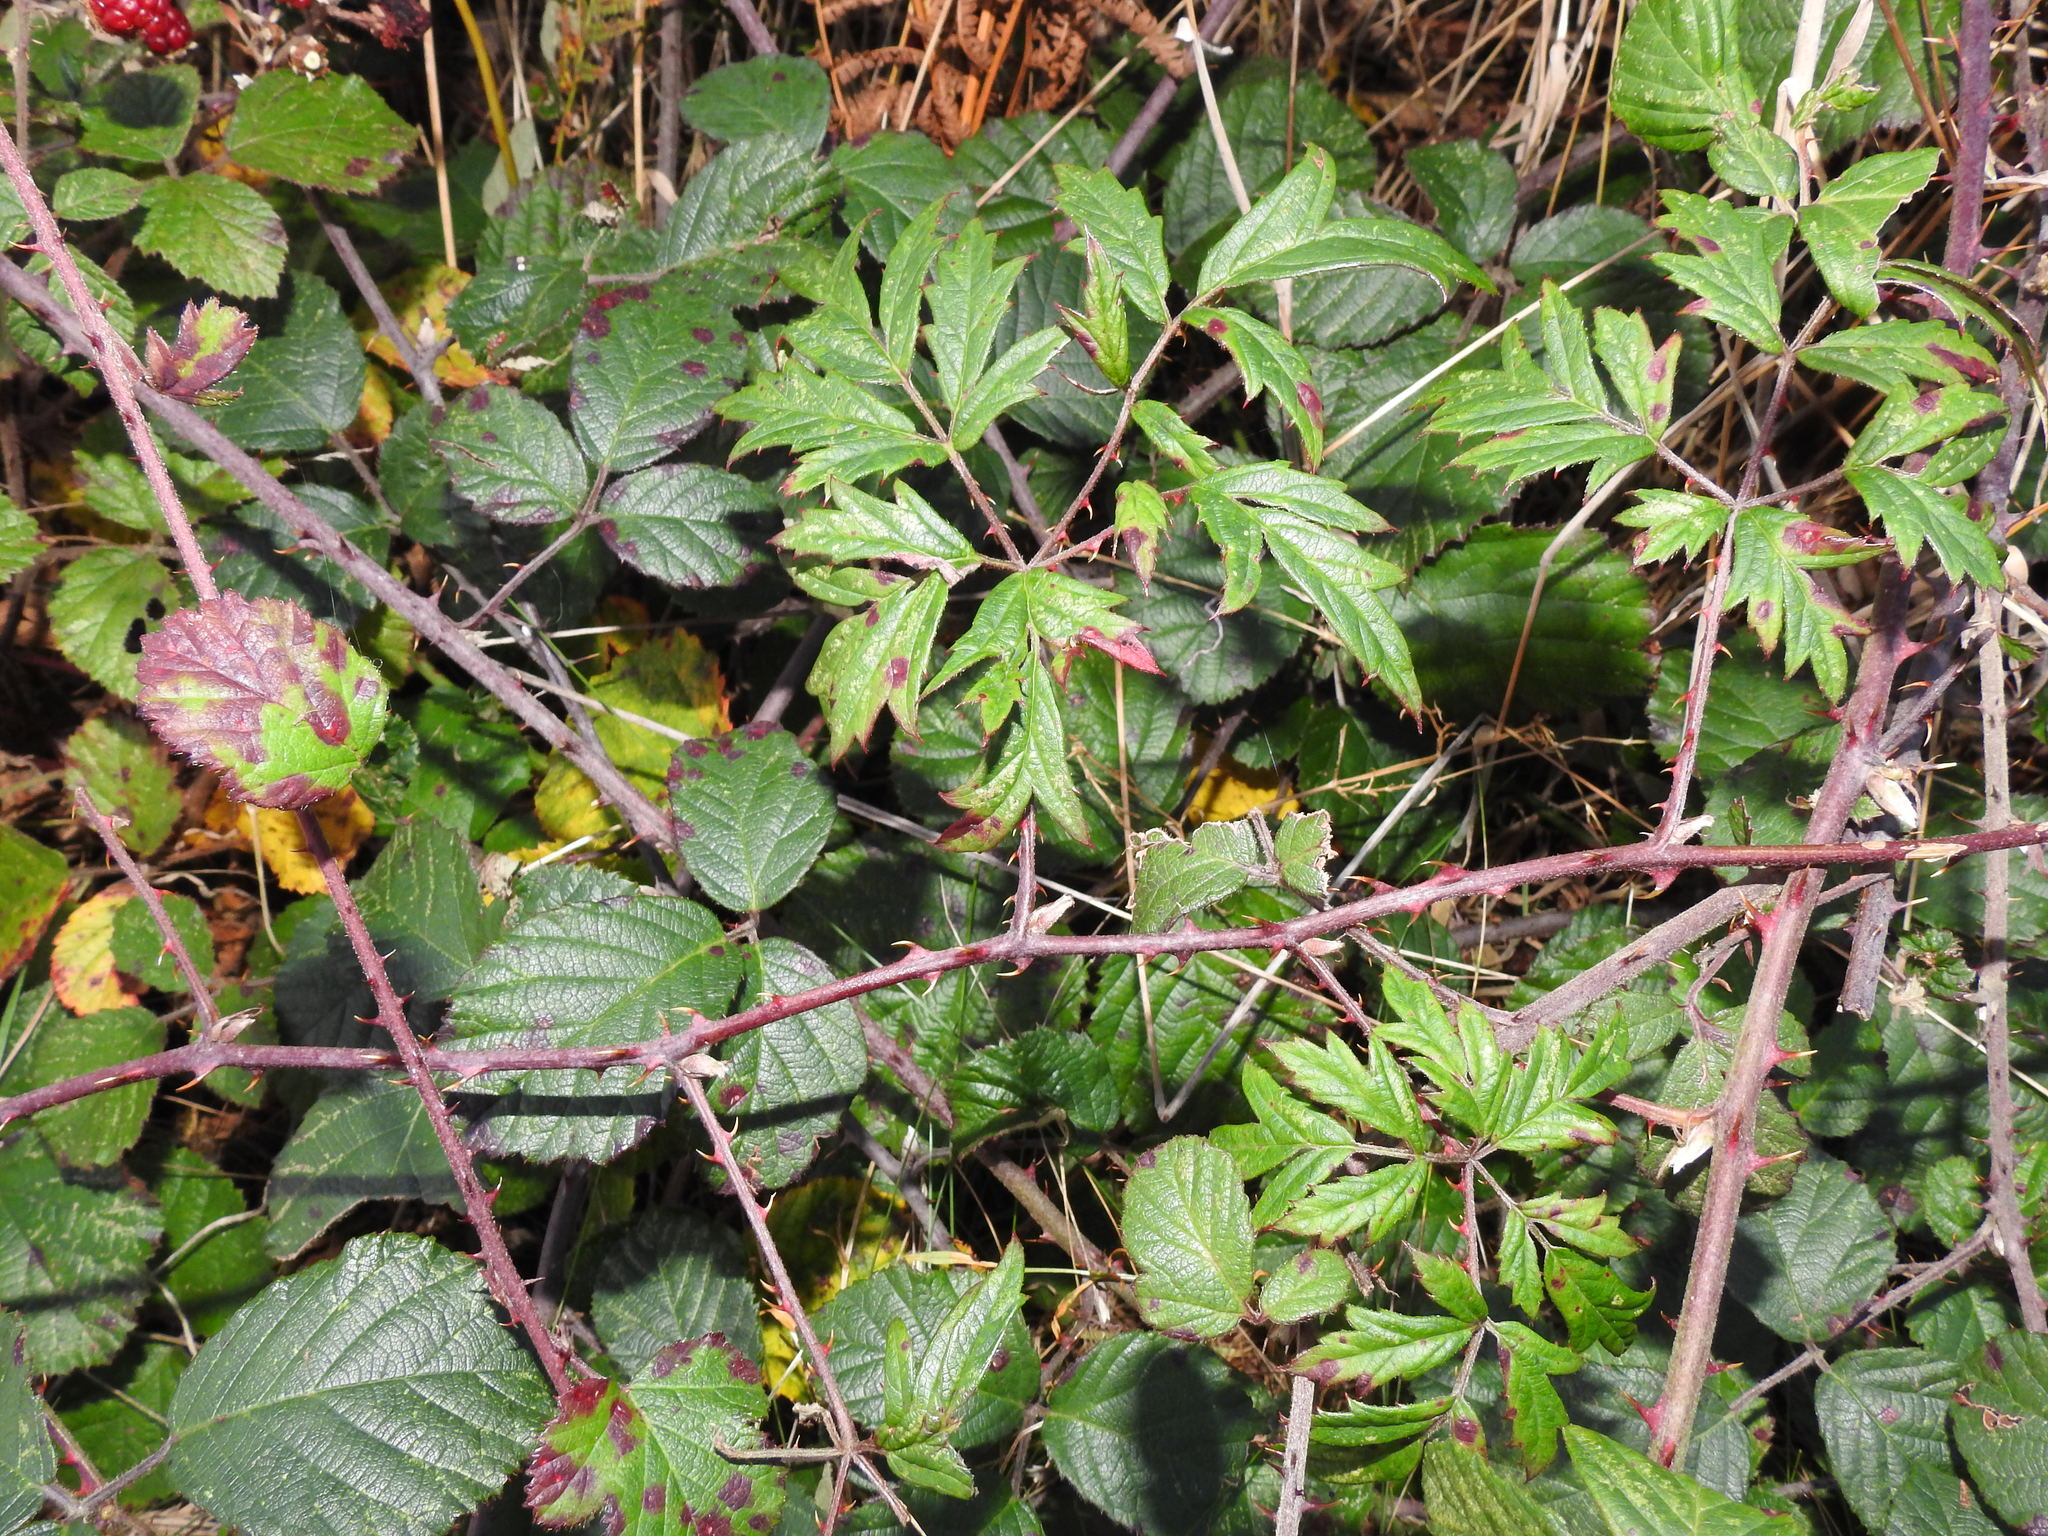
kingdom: Plantae
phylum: Tracheophyta
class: Magnoliopsida
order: Rosales
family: Rosaceae
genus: Rubus
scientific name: Rubus laciniatus
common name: Evergreen blackberry
